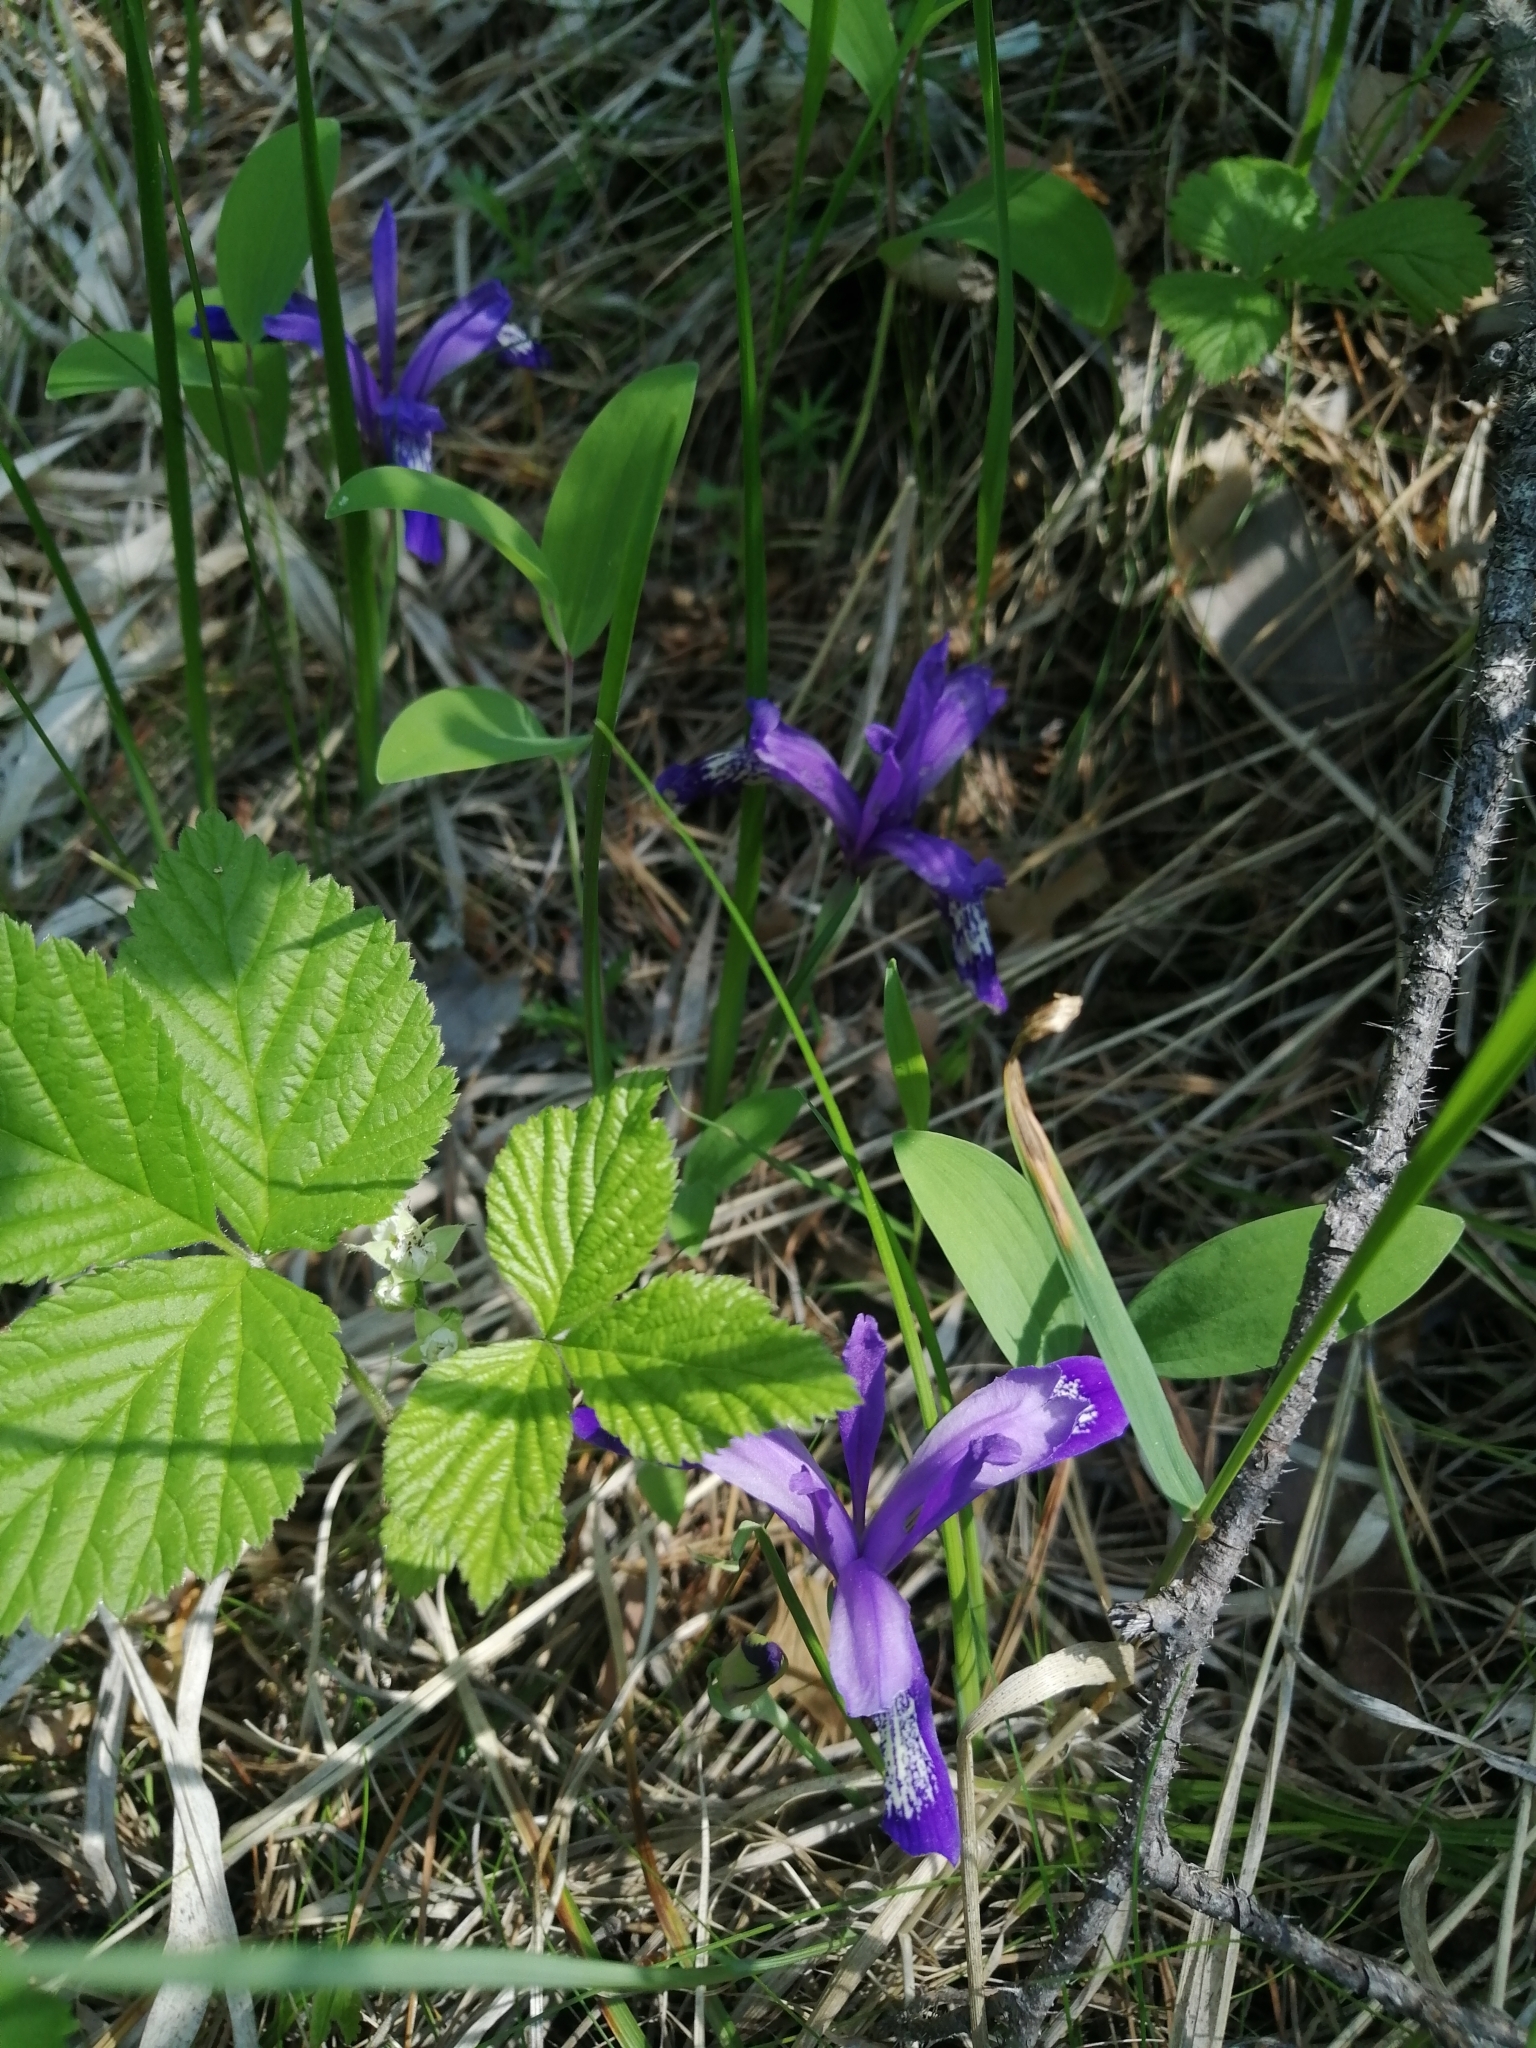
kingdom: Plantae
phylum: Tracheophyta
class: Liliopsida
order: Asparagales
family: Iridaceae
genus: Iris
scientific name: Iris ruthenica
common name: Purple-bract iris
